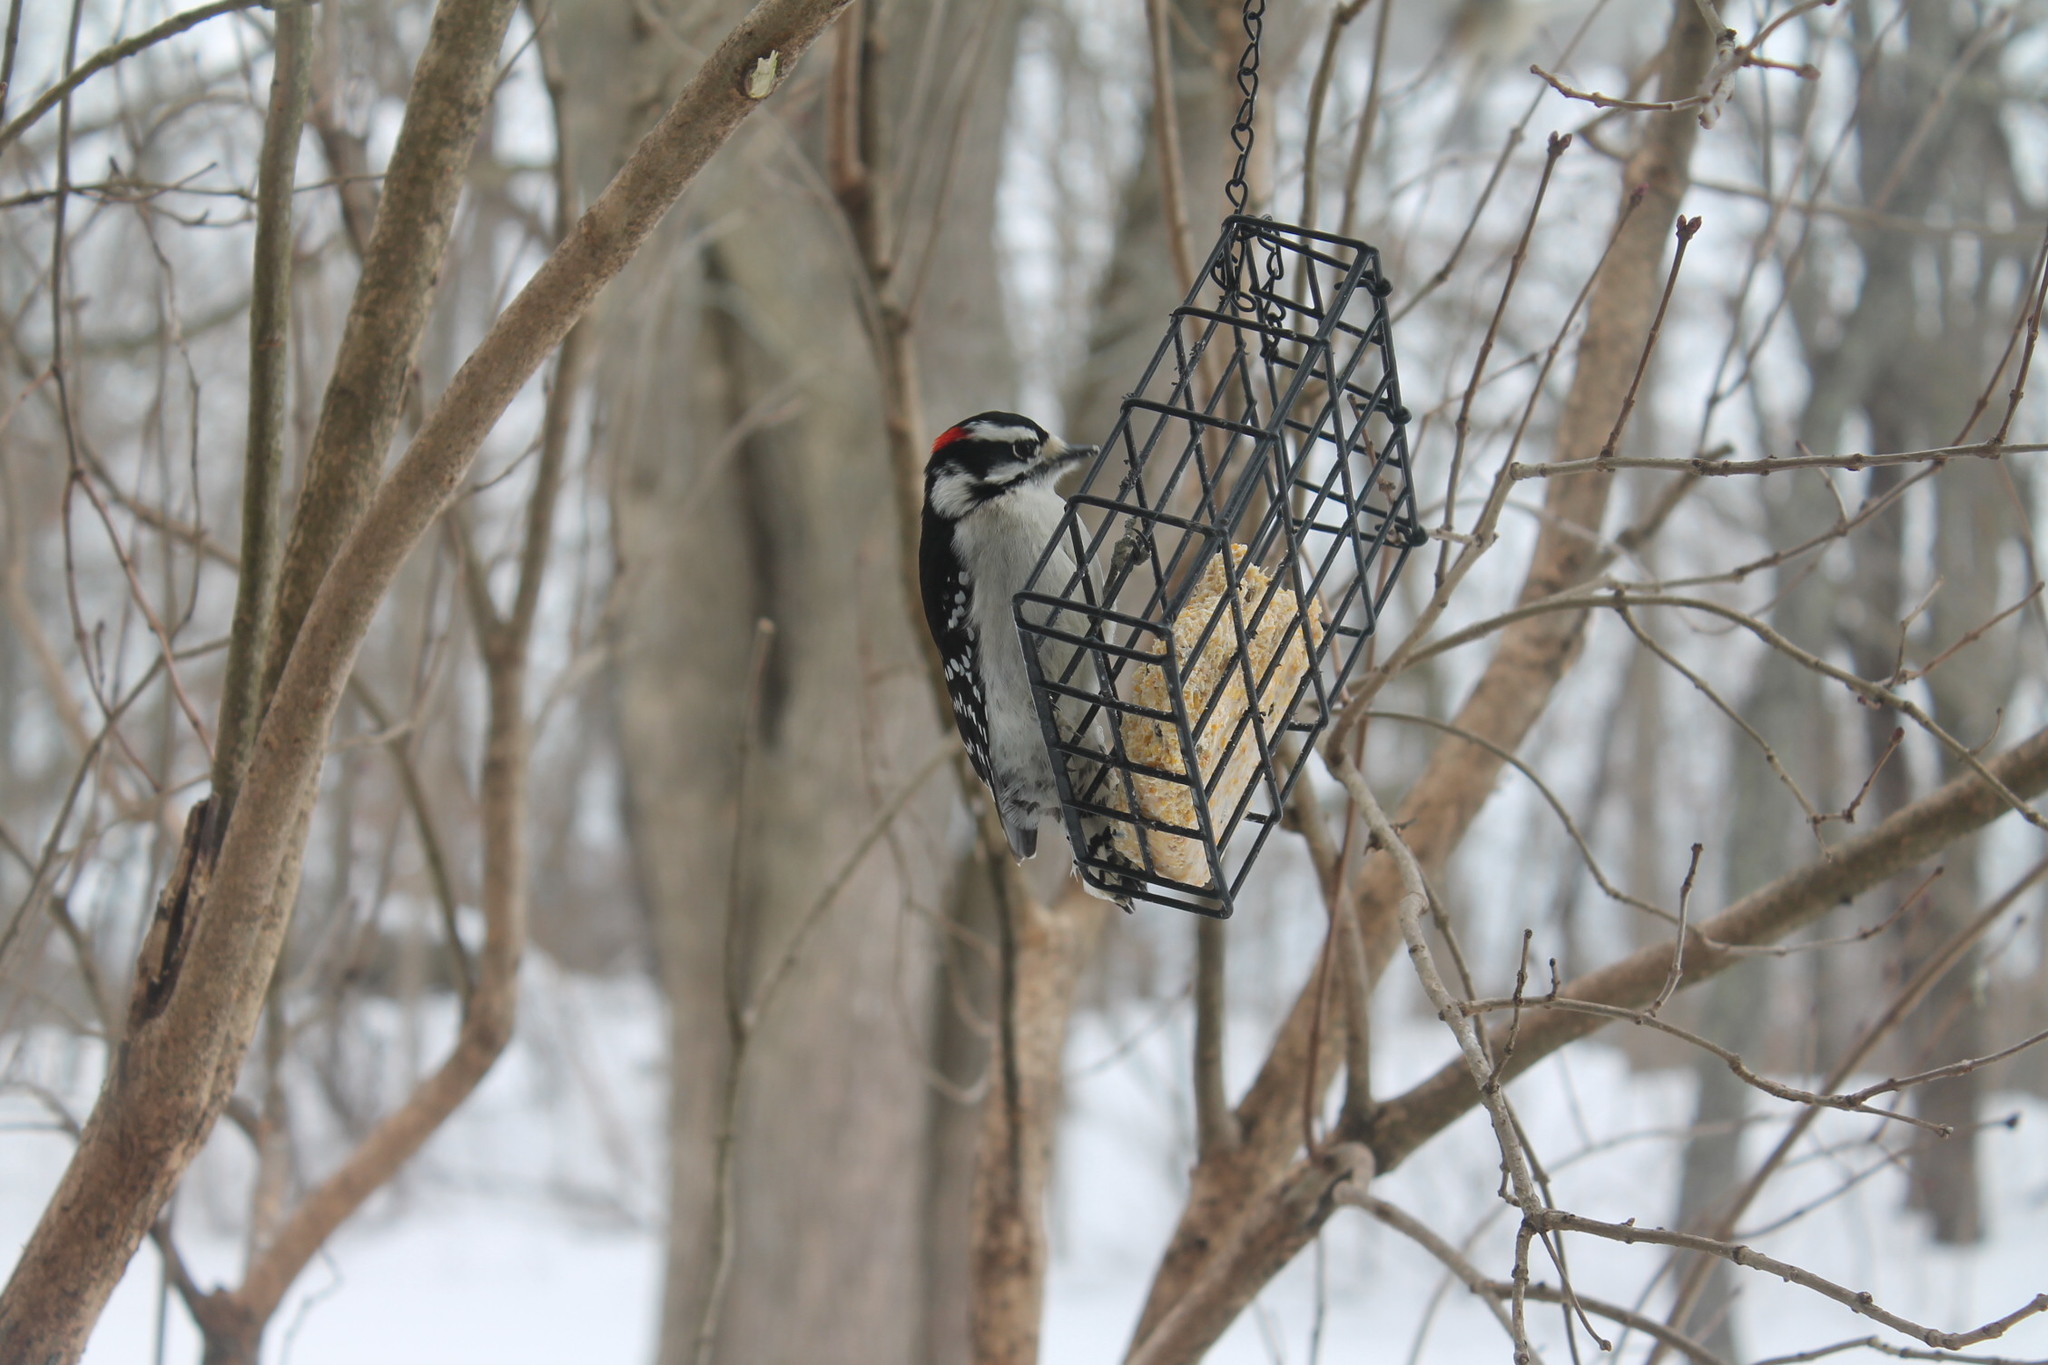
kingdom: Animalia
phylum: Chordata
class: Aves
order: Piciformes
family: Picidae
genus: Dryobates
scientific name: Dryobates pubescens
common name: Downy woodpecker
